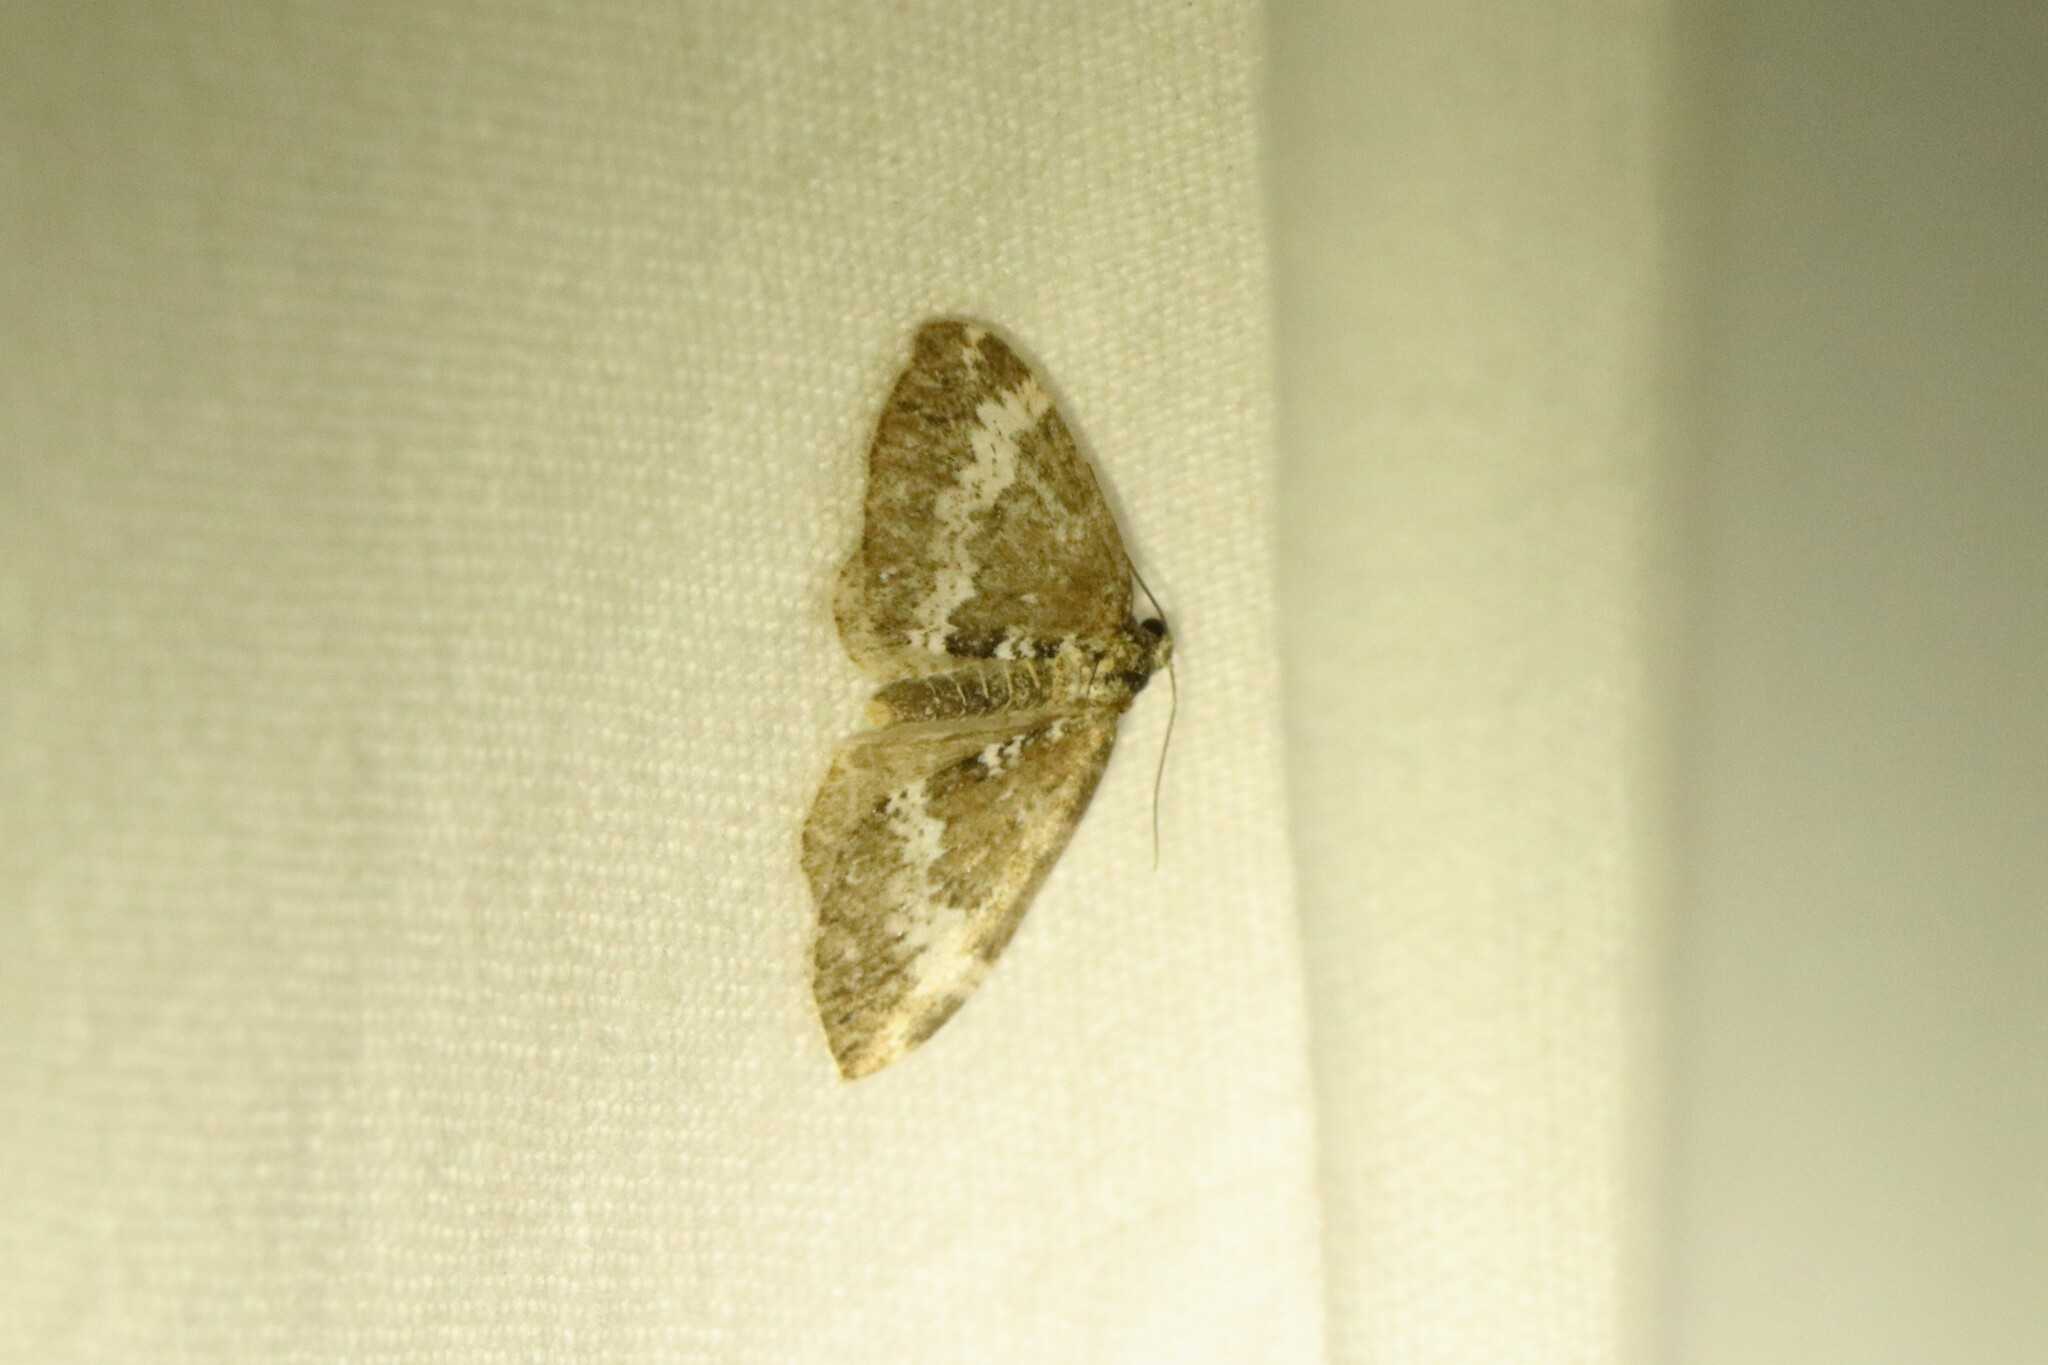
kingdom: Animalia
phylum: Arthropoda
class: Insecta
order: Lepidoptera
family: Geometridae
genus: Perizoma
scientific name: Perizoma alchemillata
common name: Small rivulet
